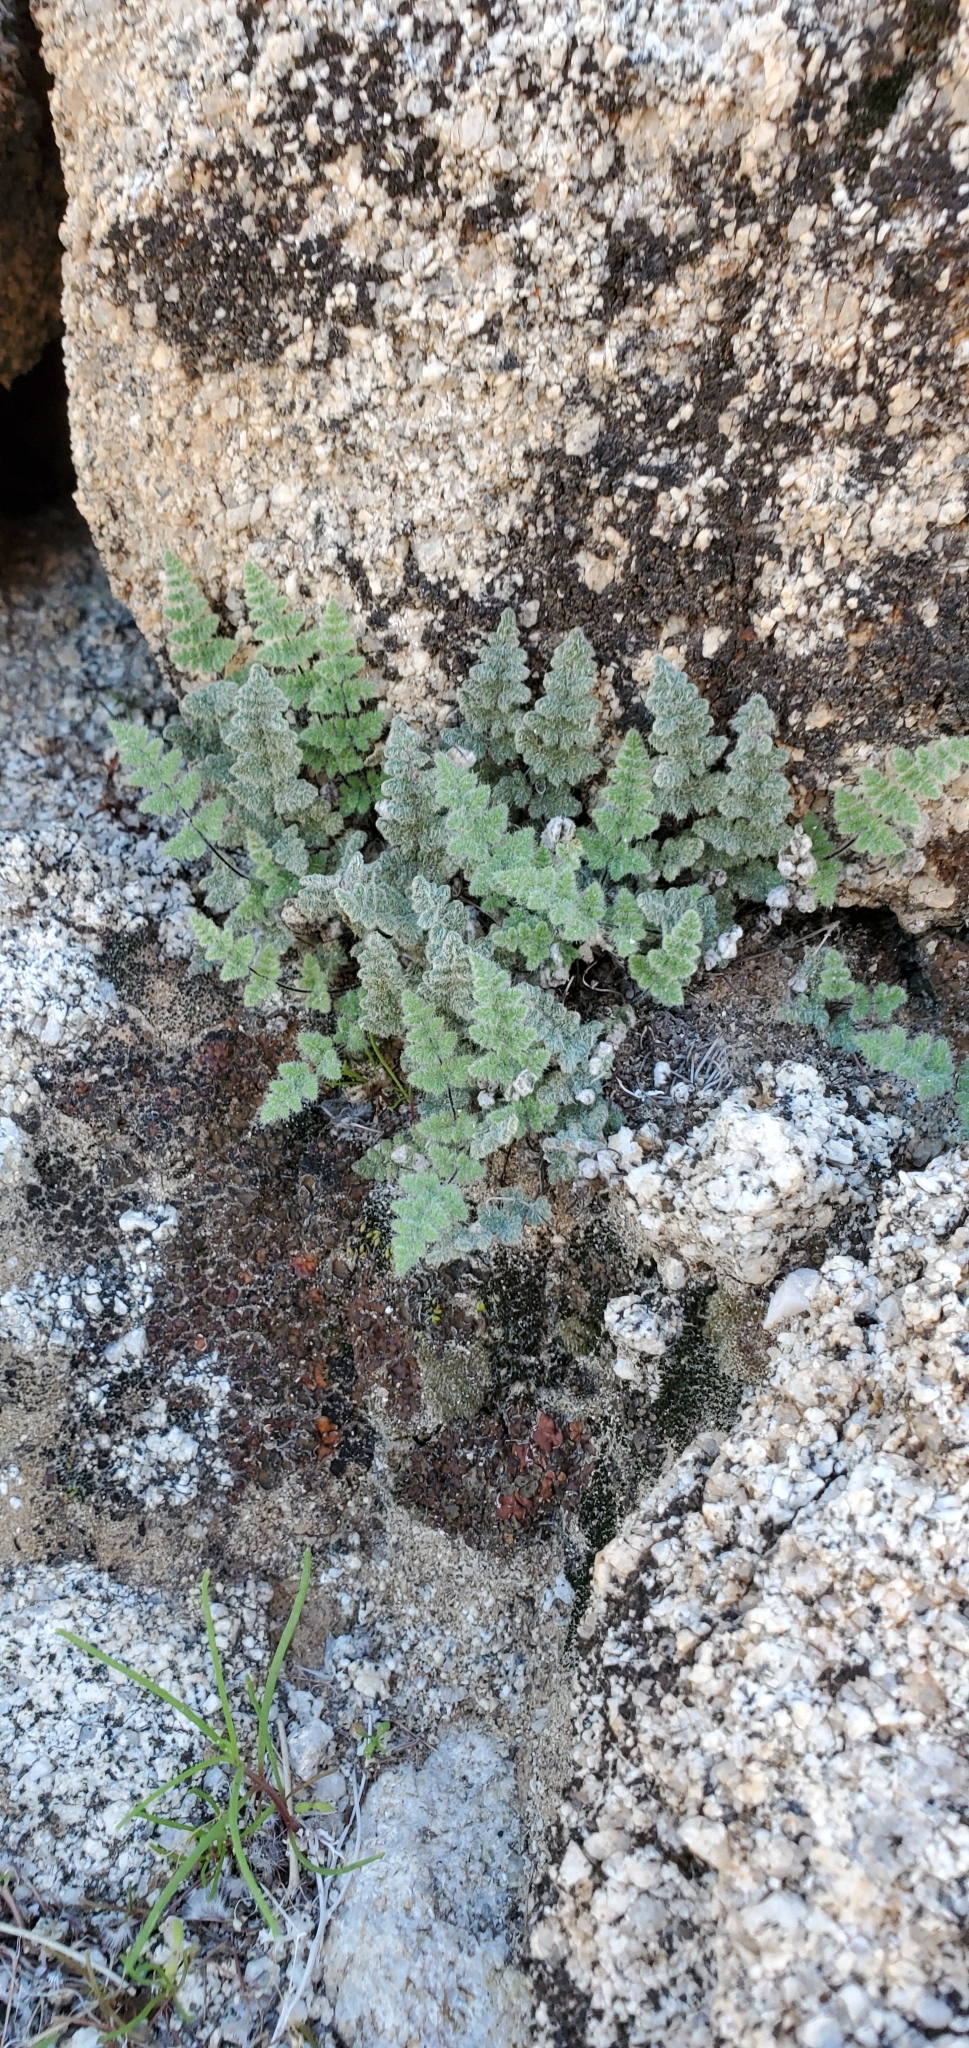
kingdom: Plantae
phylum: Tracheophyta
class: Polypodiopsida
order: Polypodiales
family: Pteridaceae
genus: Myriopteris
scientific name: Myriopteris parryi
